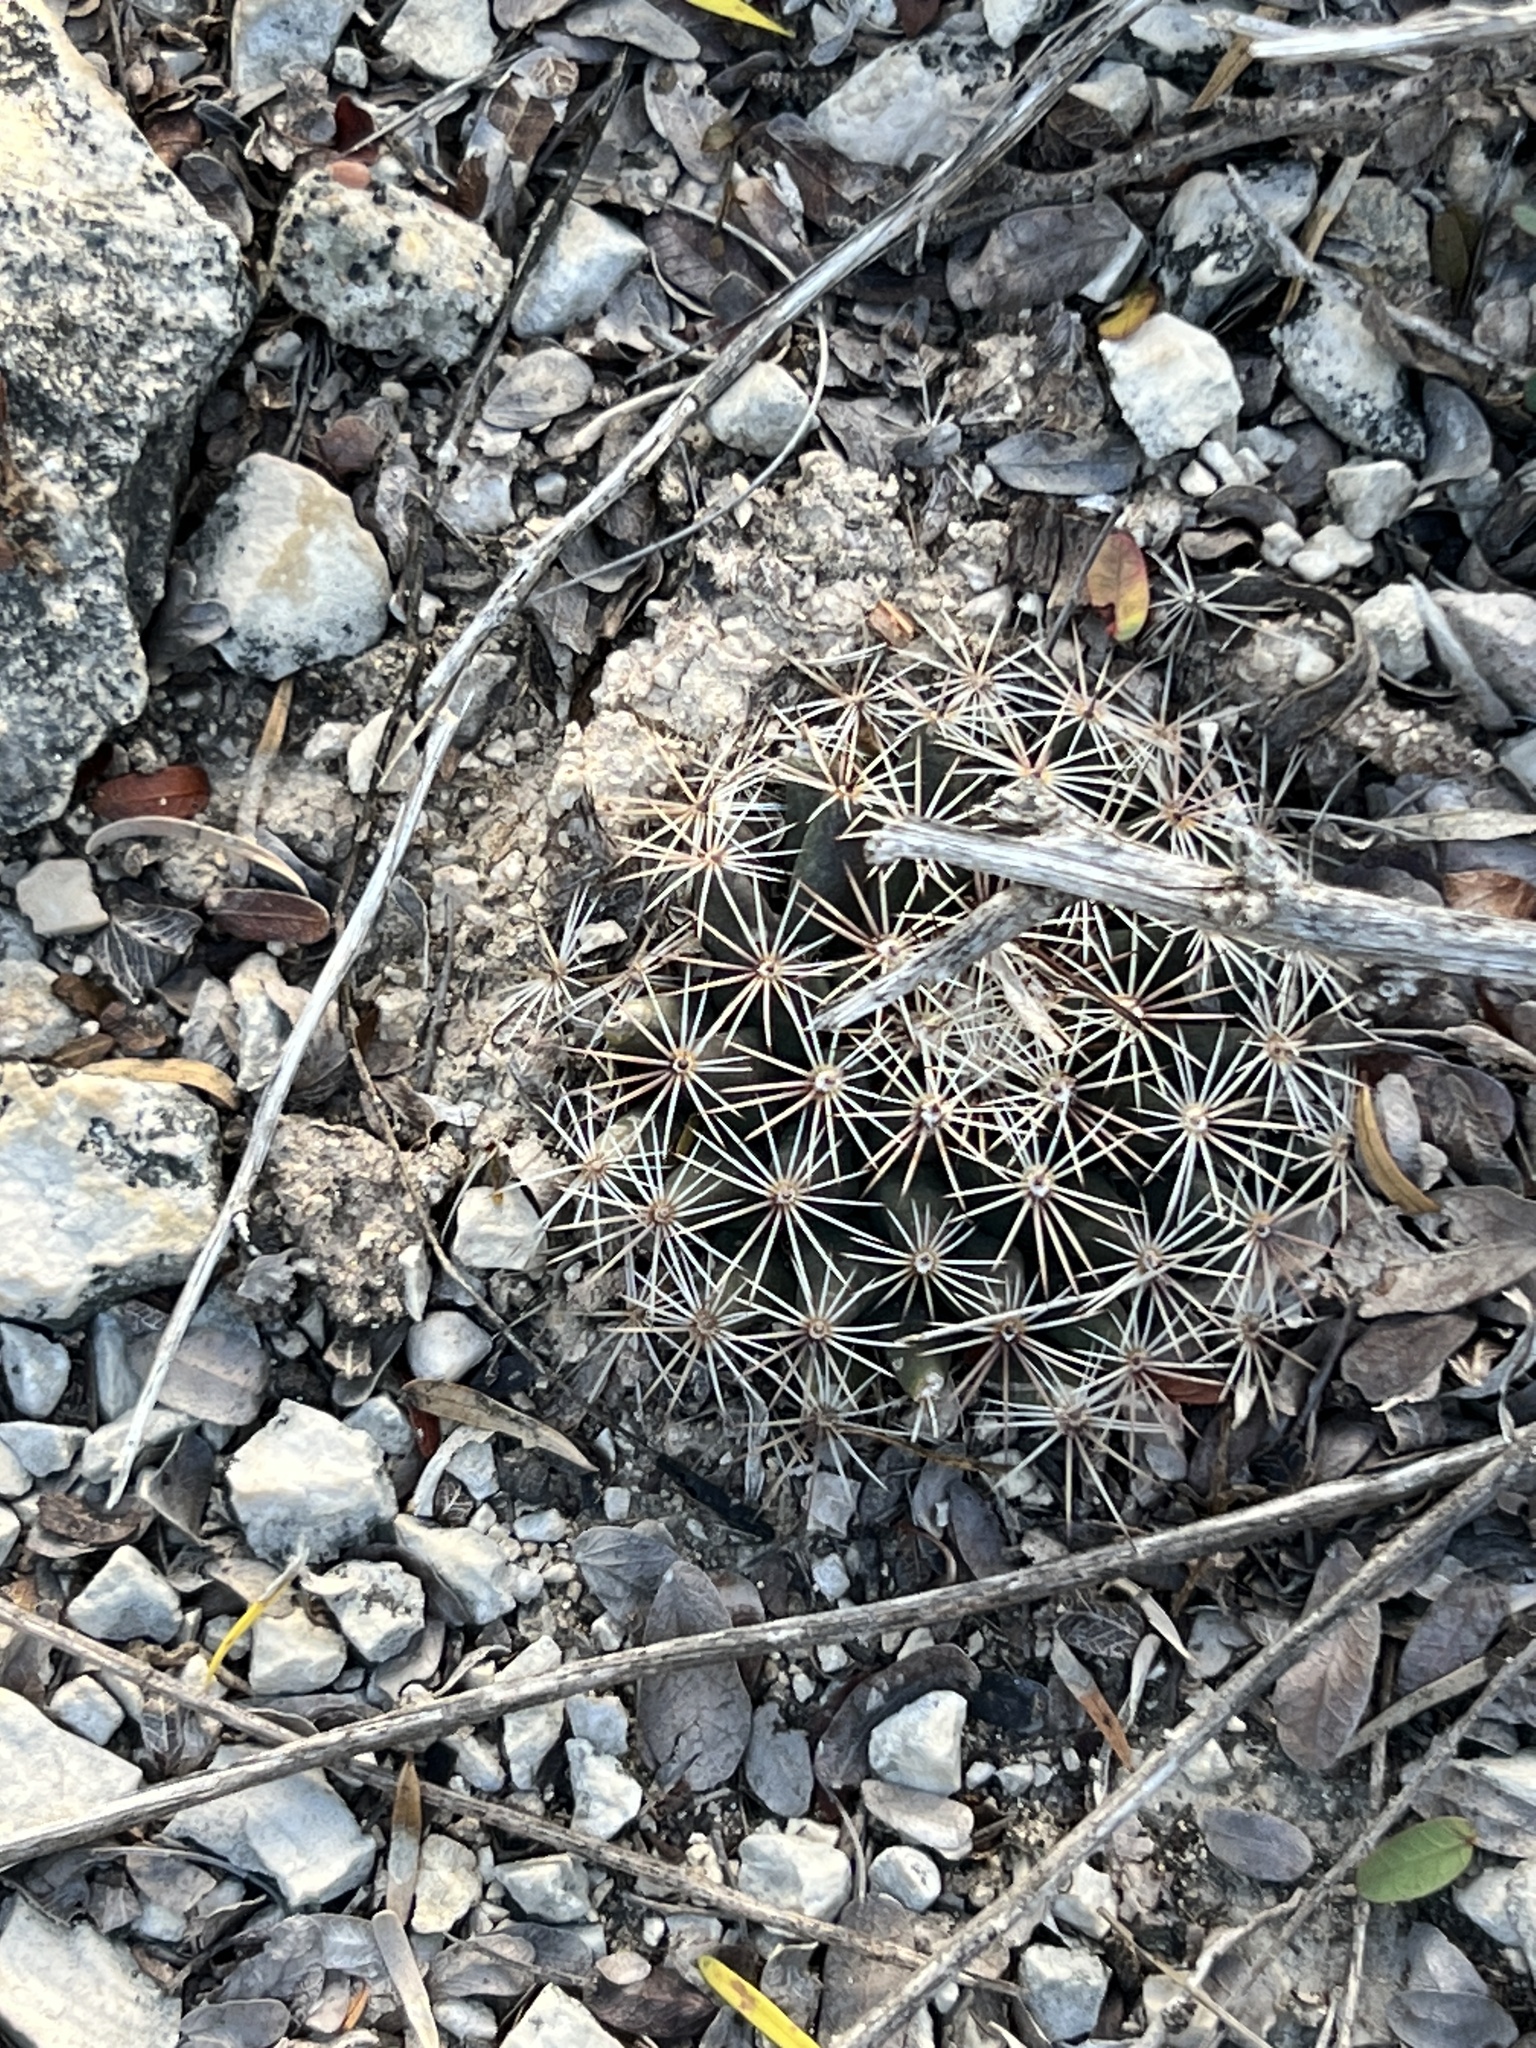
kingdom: Plantae
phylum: Tracheophyta
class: Magnoliopsida
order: Caryophyllales
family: Cactaceae
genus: Mammillaria
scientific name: Mammillaria heyderi
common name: Little nipple cactus
